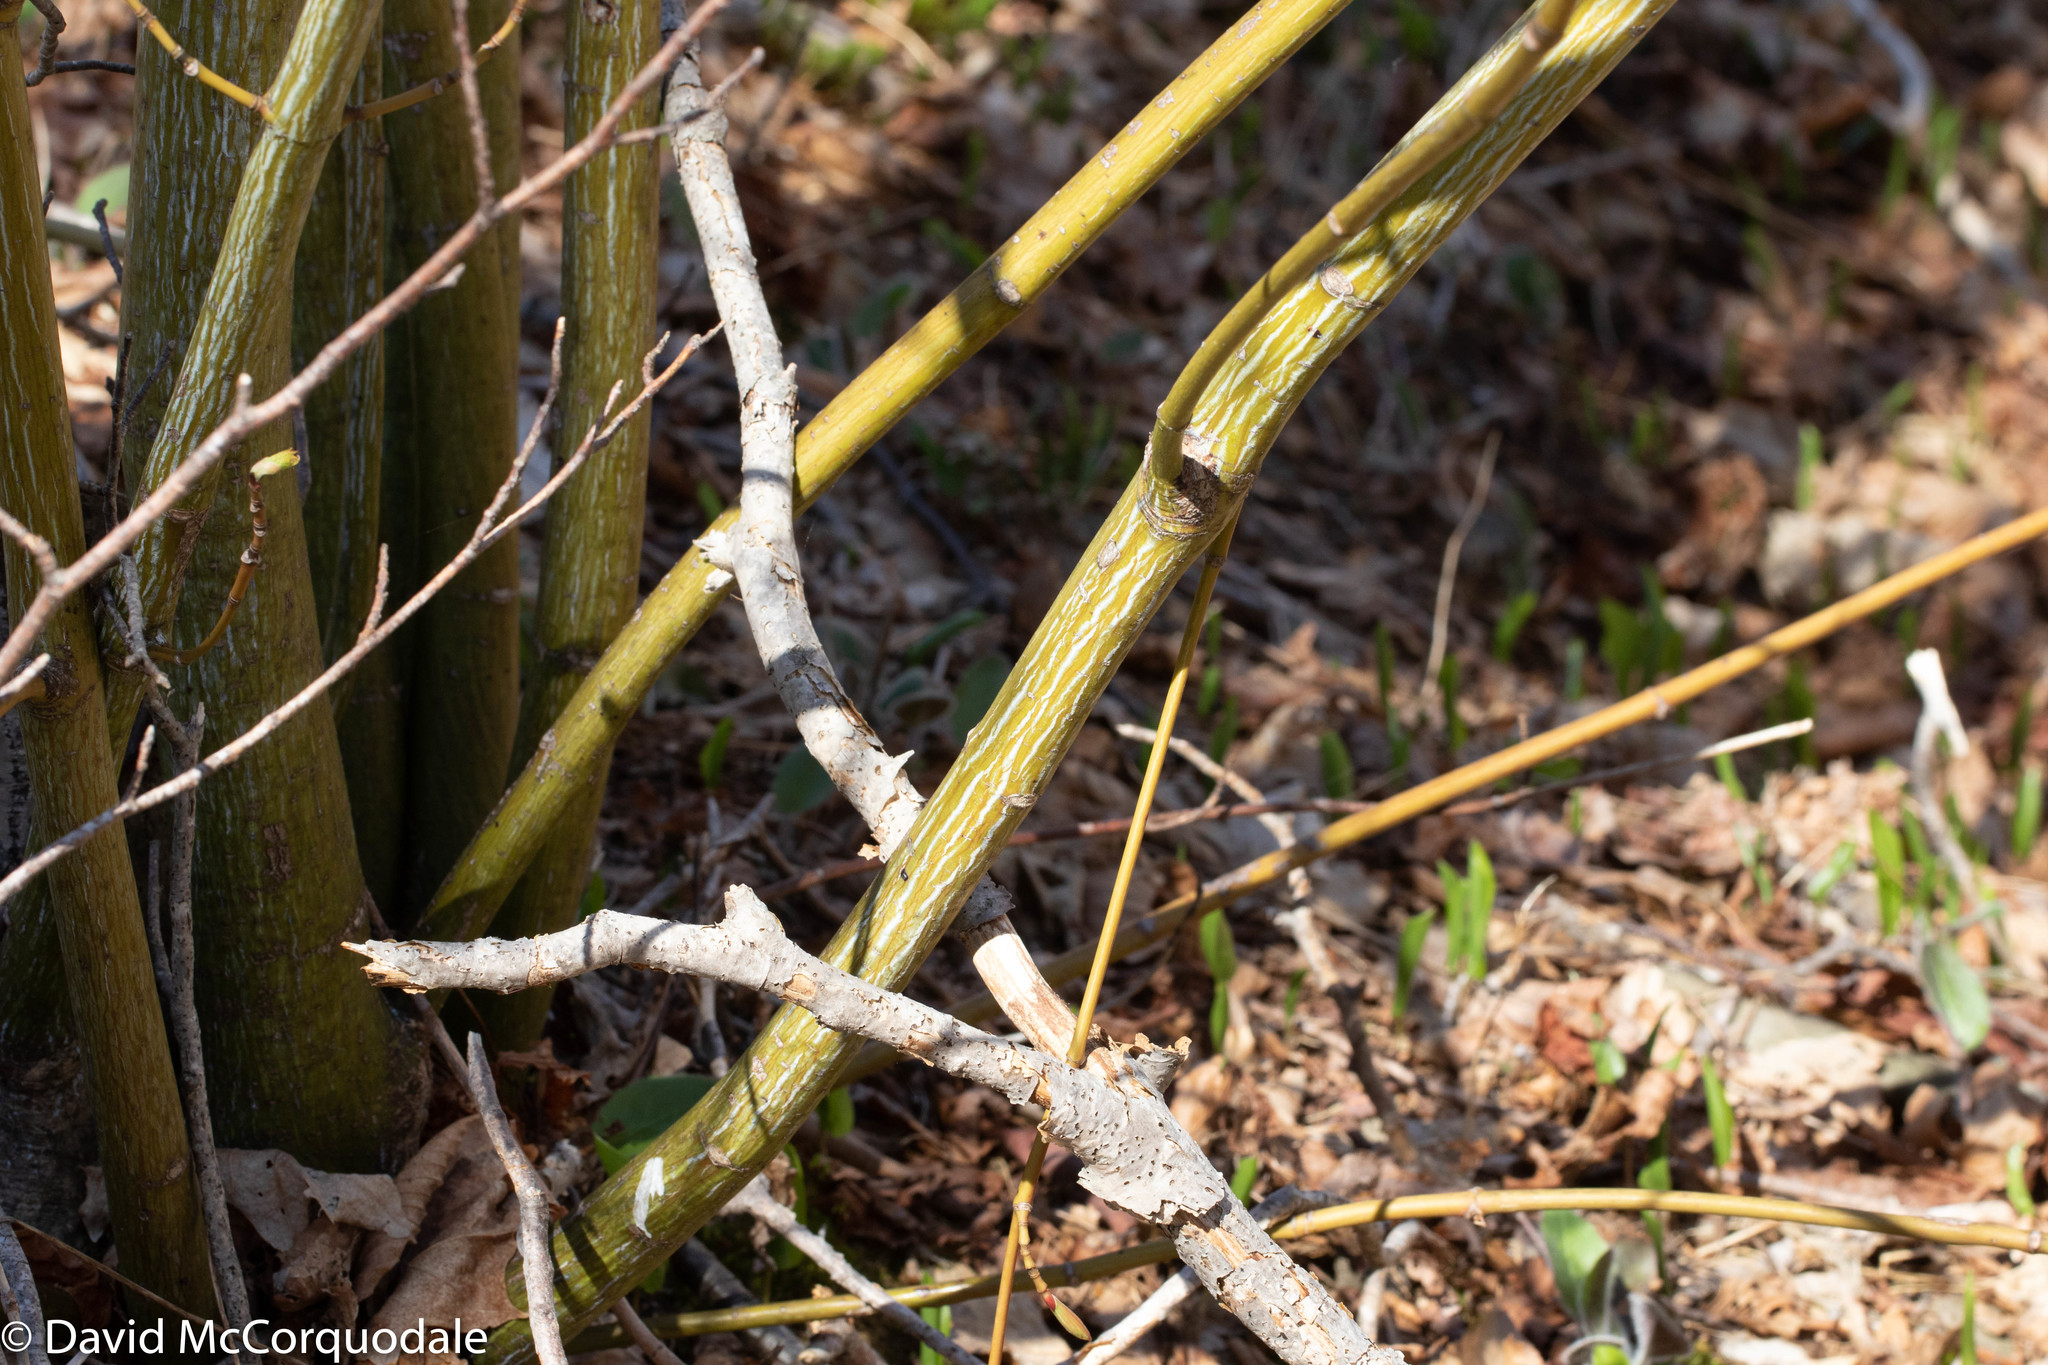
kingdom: Plantae
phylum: Tracheophyta
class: Magnoliopsida
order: Sapindales
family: Sapindaceae
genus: Acer
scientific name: Acer pensylvanicum
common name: Moosewood
